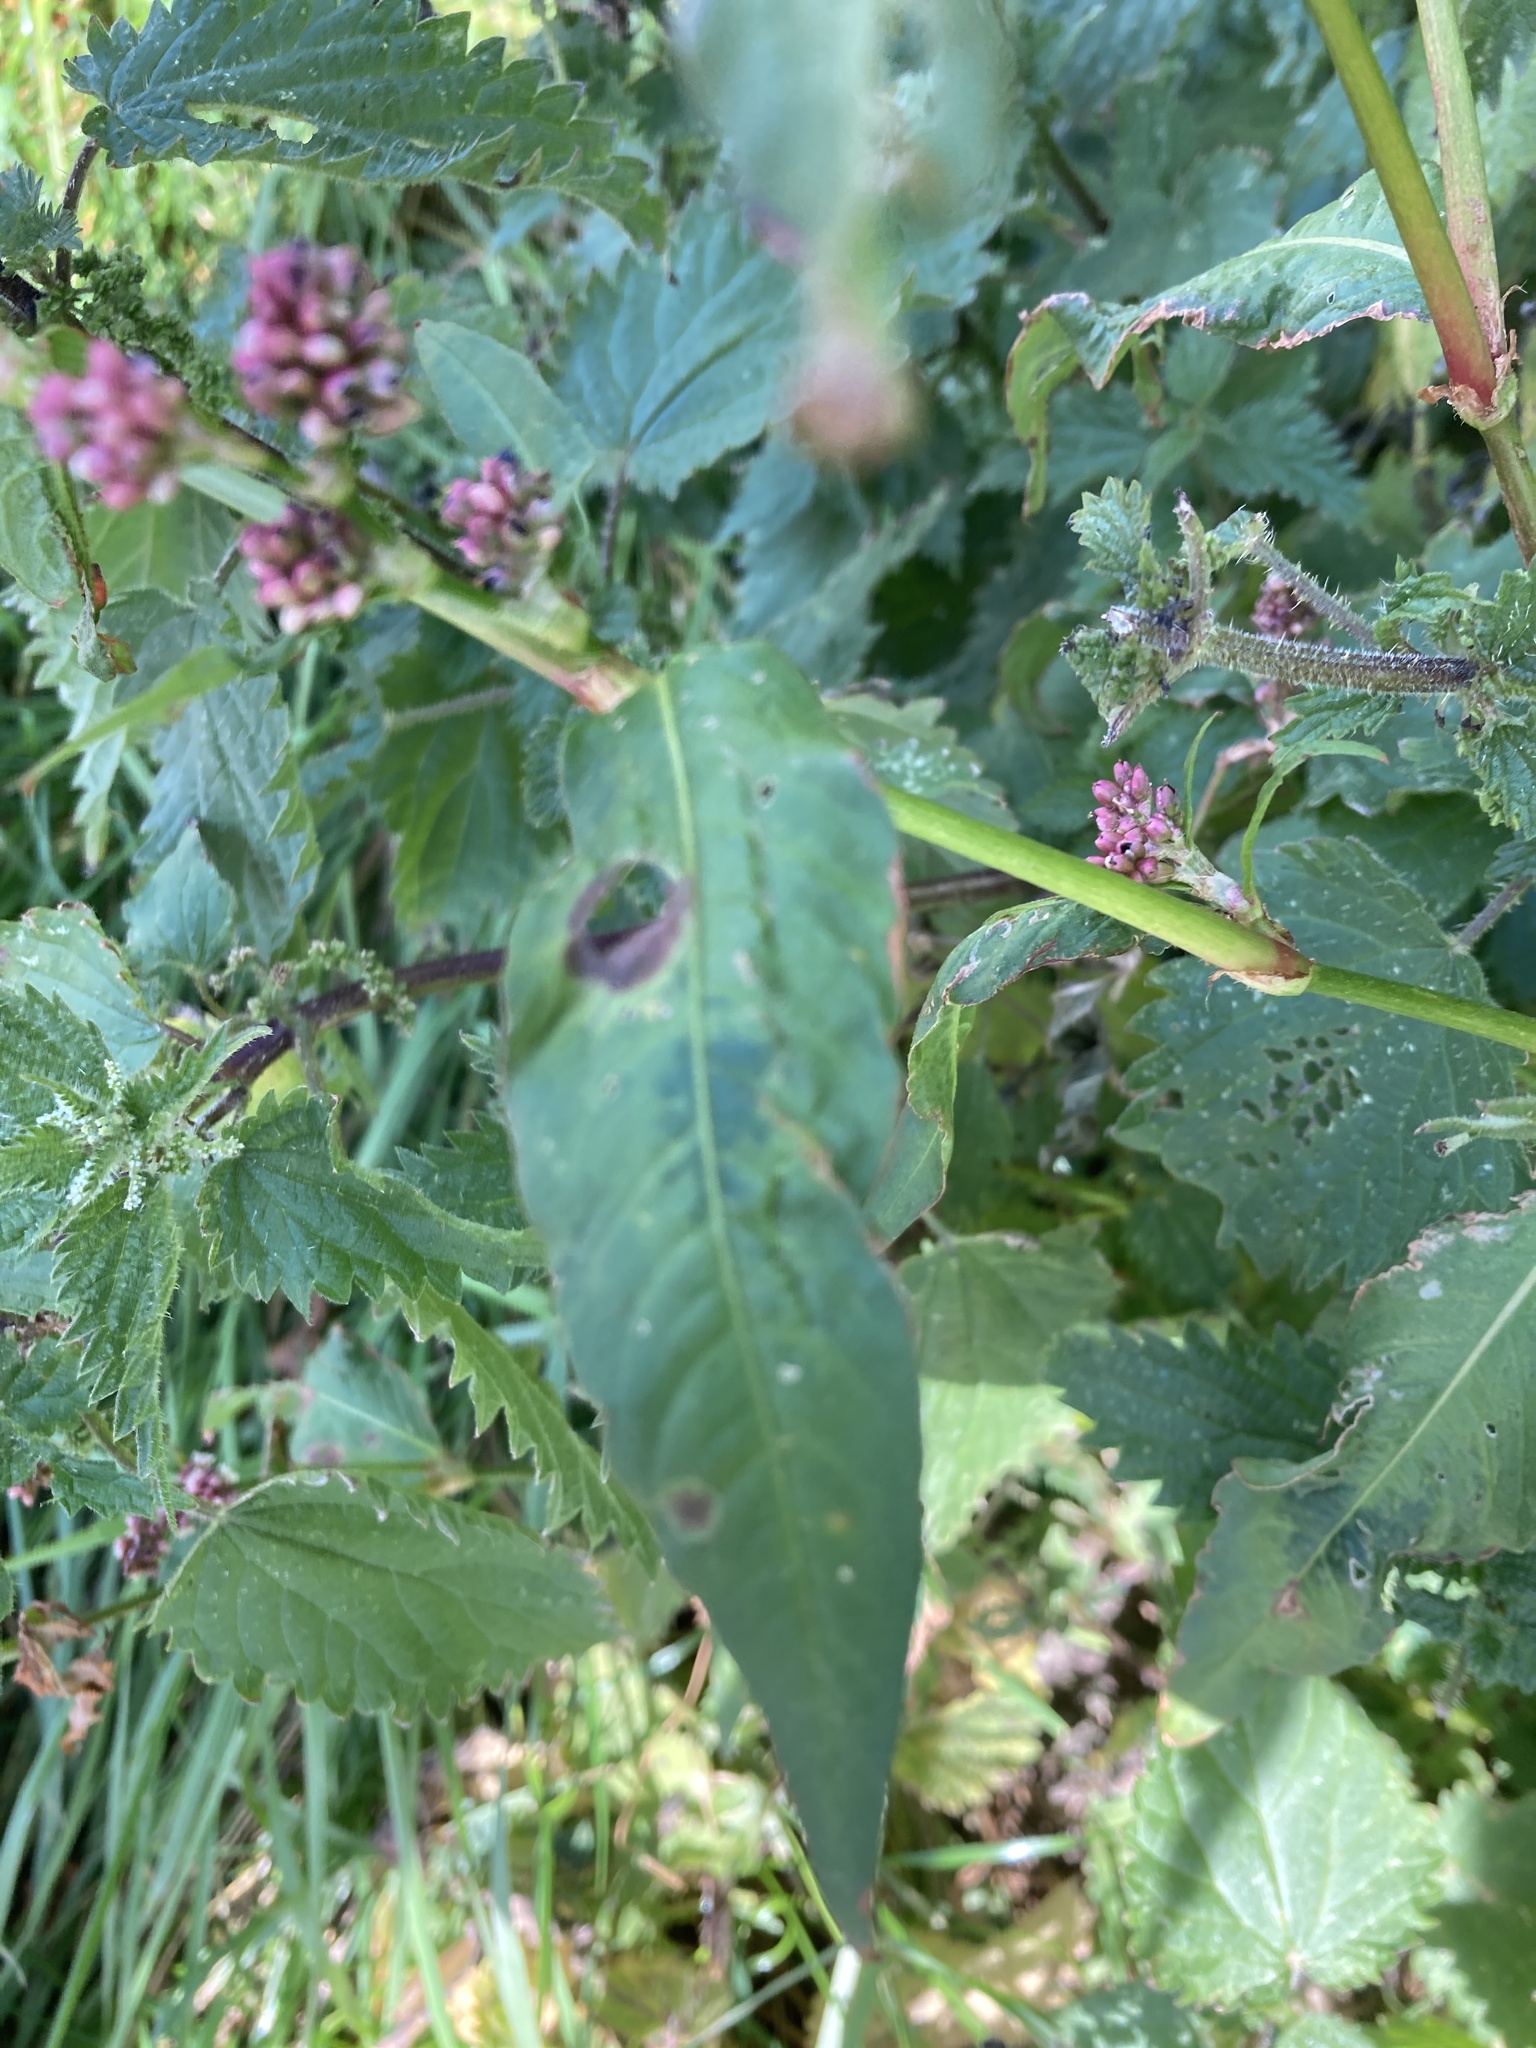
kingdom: Plantae
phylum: Tracheophyta
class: Magnoliopsida
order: Caryophyllales
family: Polygonaceae
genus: Persicaria
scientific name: Persicaria maculosa
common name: Redshank
